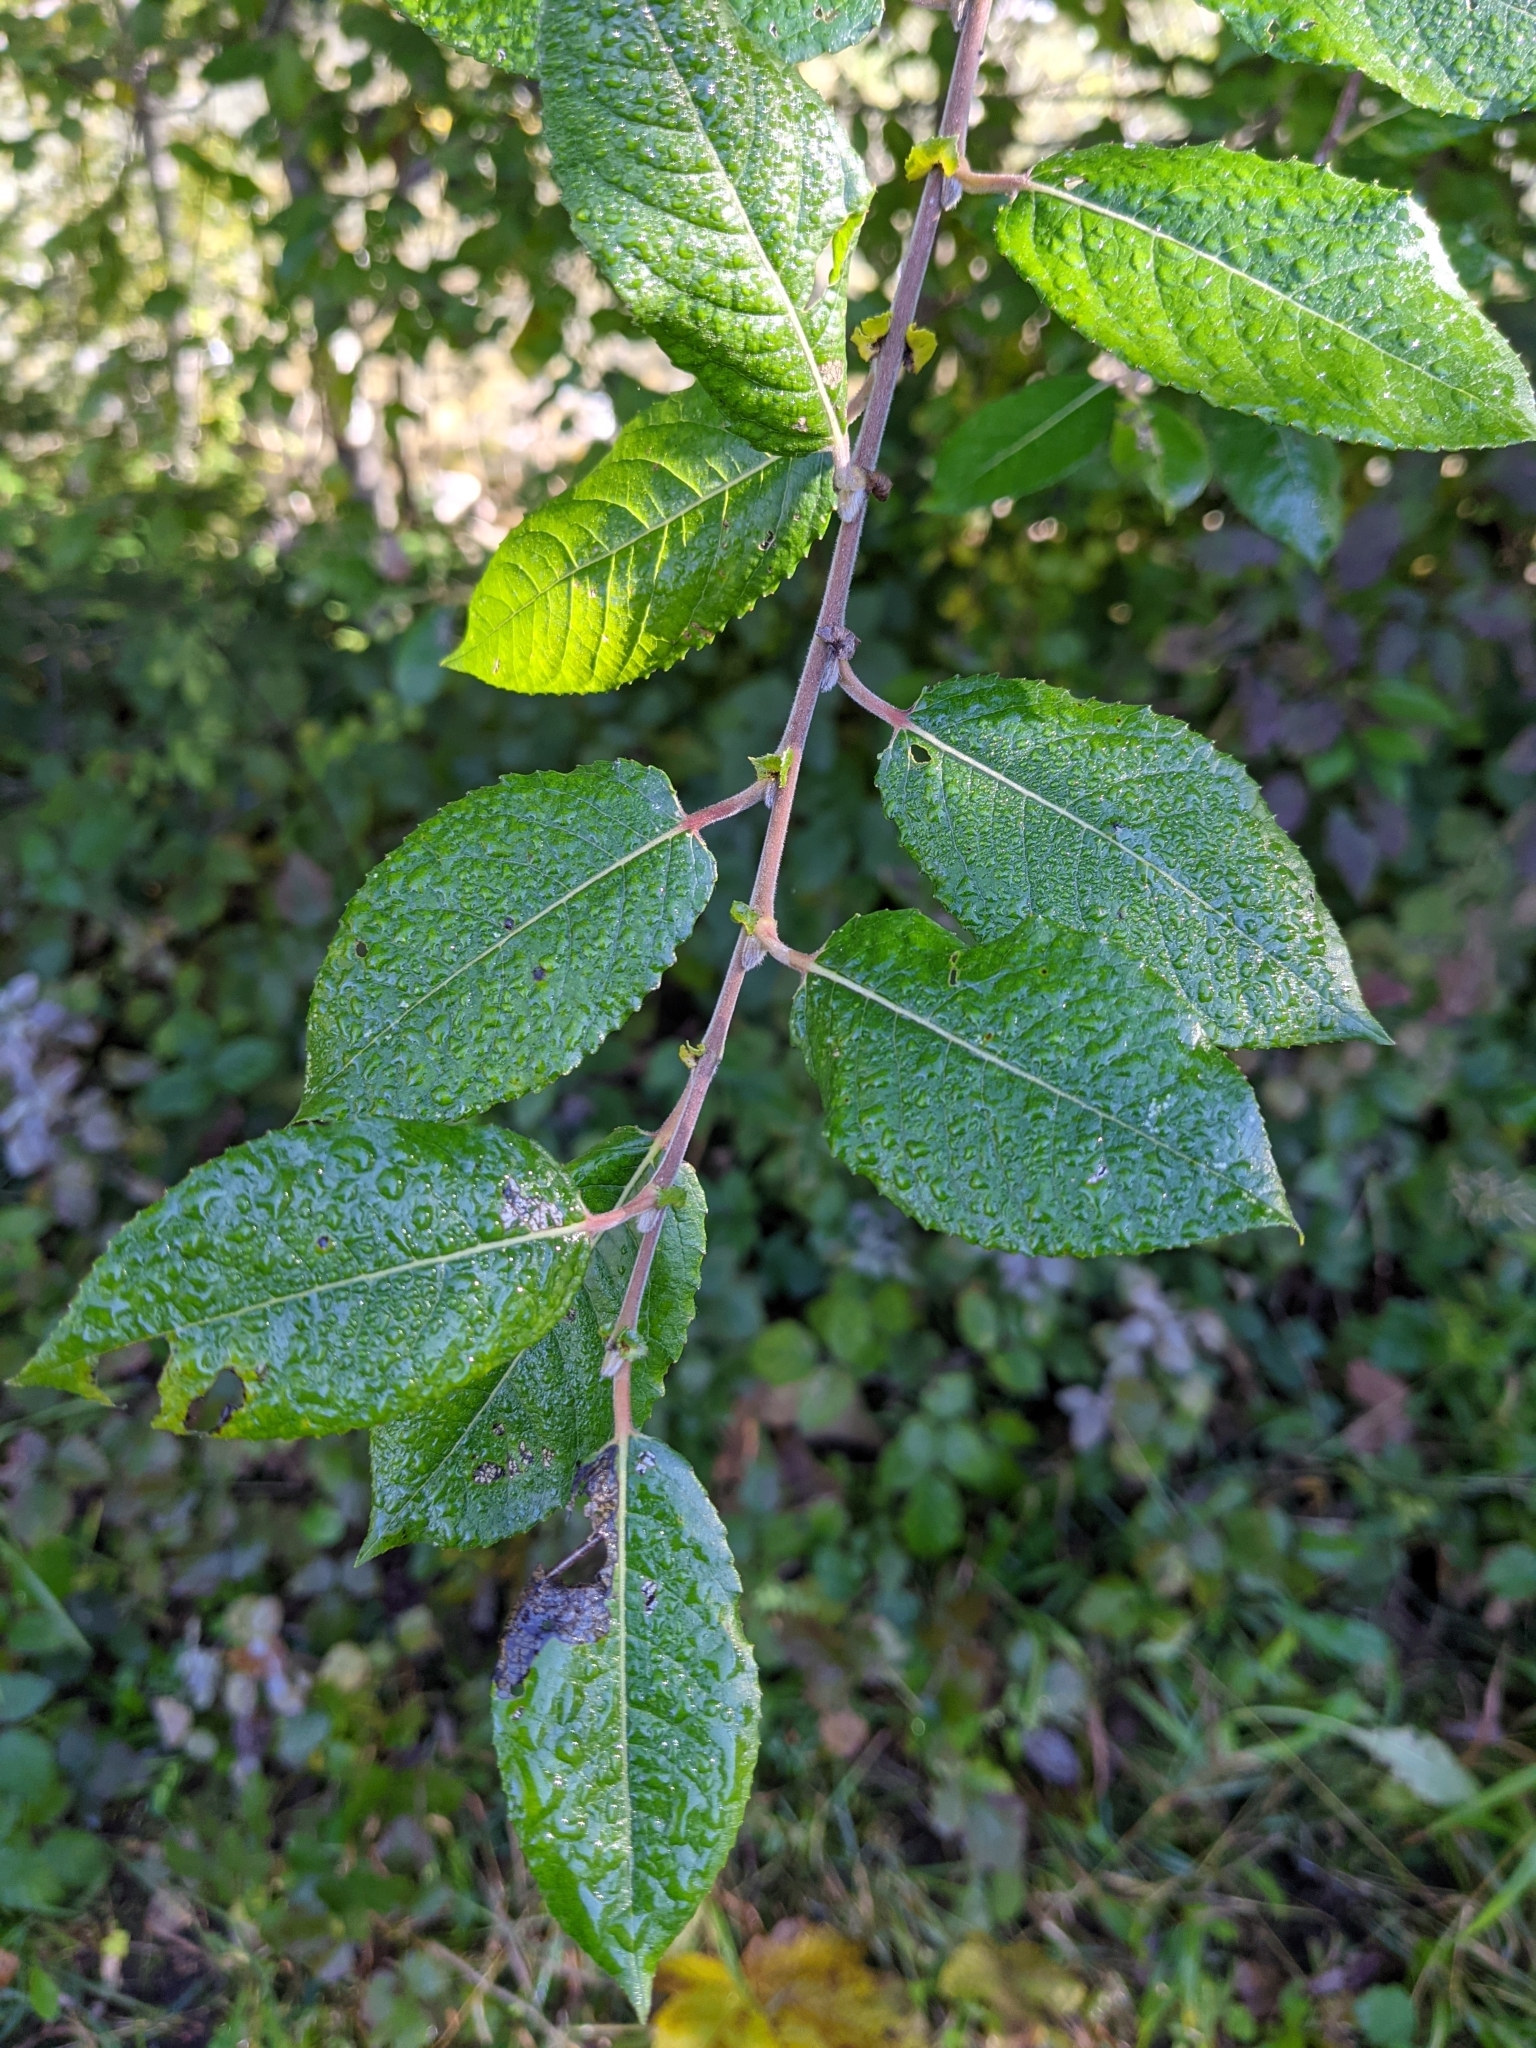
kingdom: Plantae
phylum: Tracheophyta
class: Magnoliopsida
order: Malpighiales
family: Salicaceae
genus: Salix
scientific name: Salix myrsinifolia
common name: Dark-leaved willow
